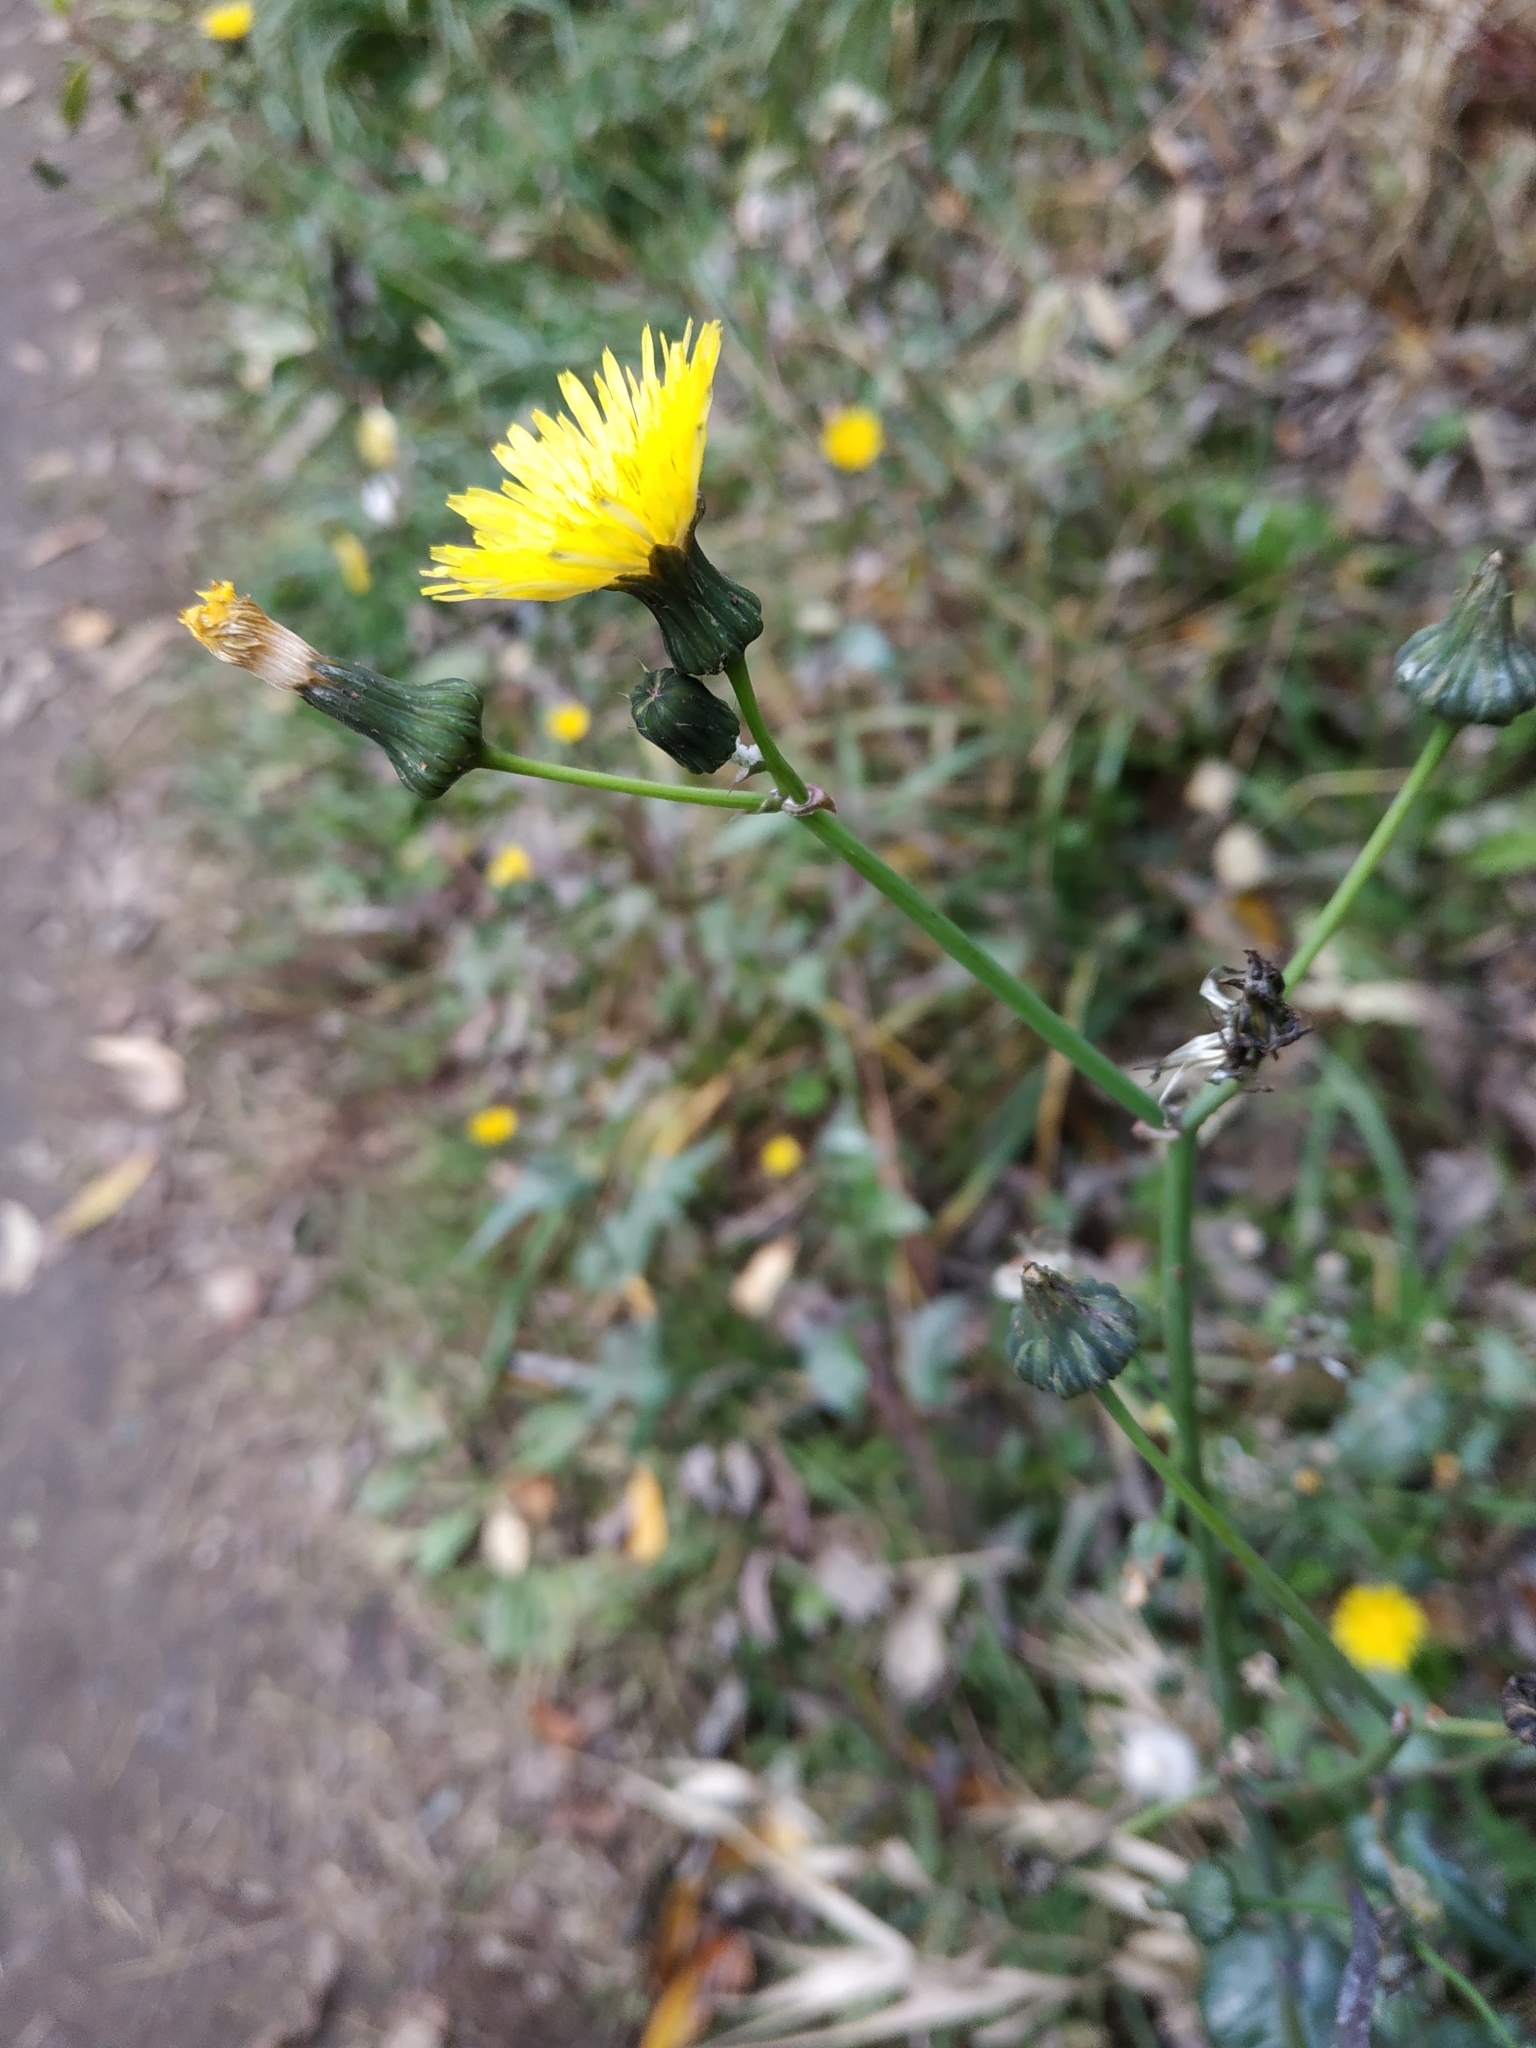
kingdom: Plantae
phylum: Tracheophyta
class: Magnoliopsida
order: Asterales
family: Asteraceae
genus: Sonchus
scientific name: Sonchus oleraceus
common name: Common sowthistle
